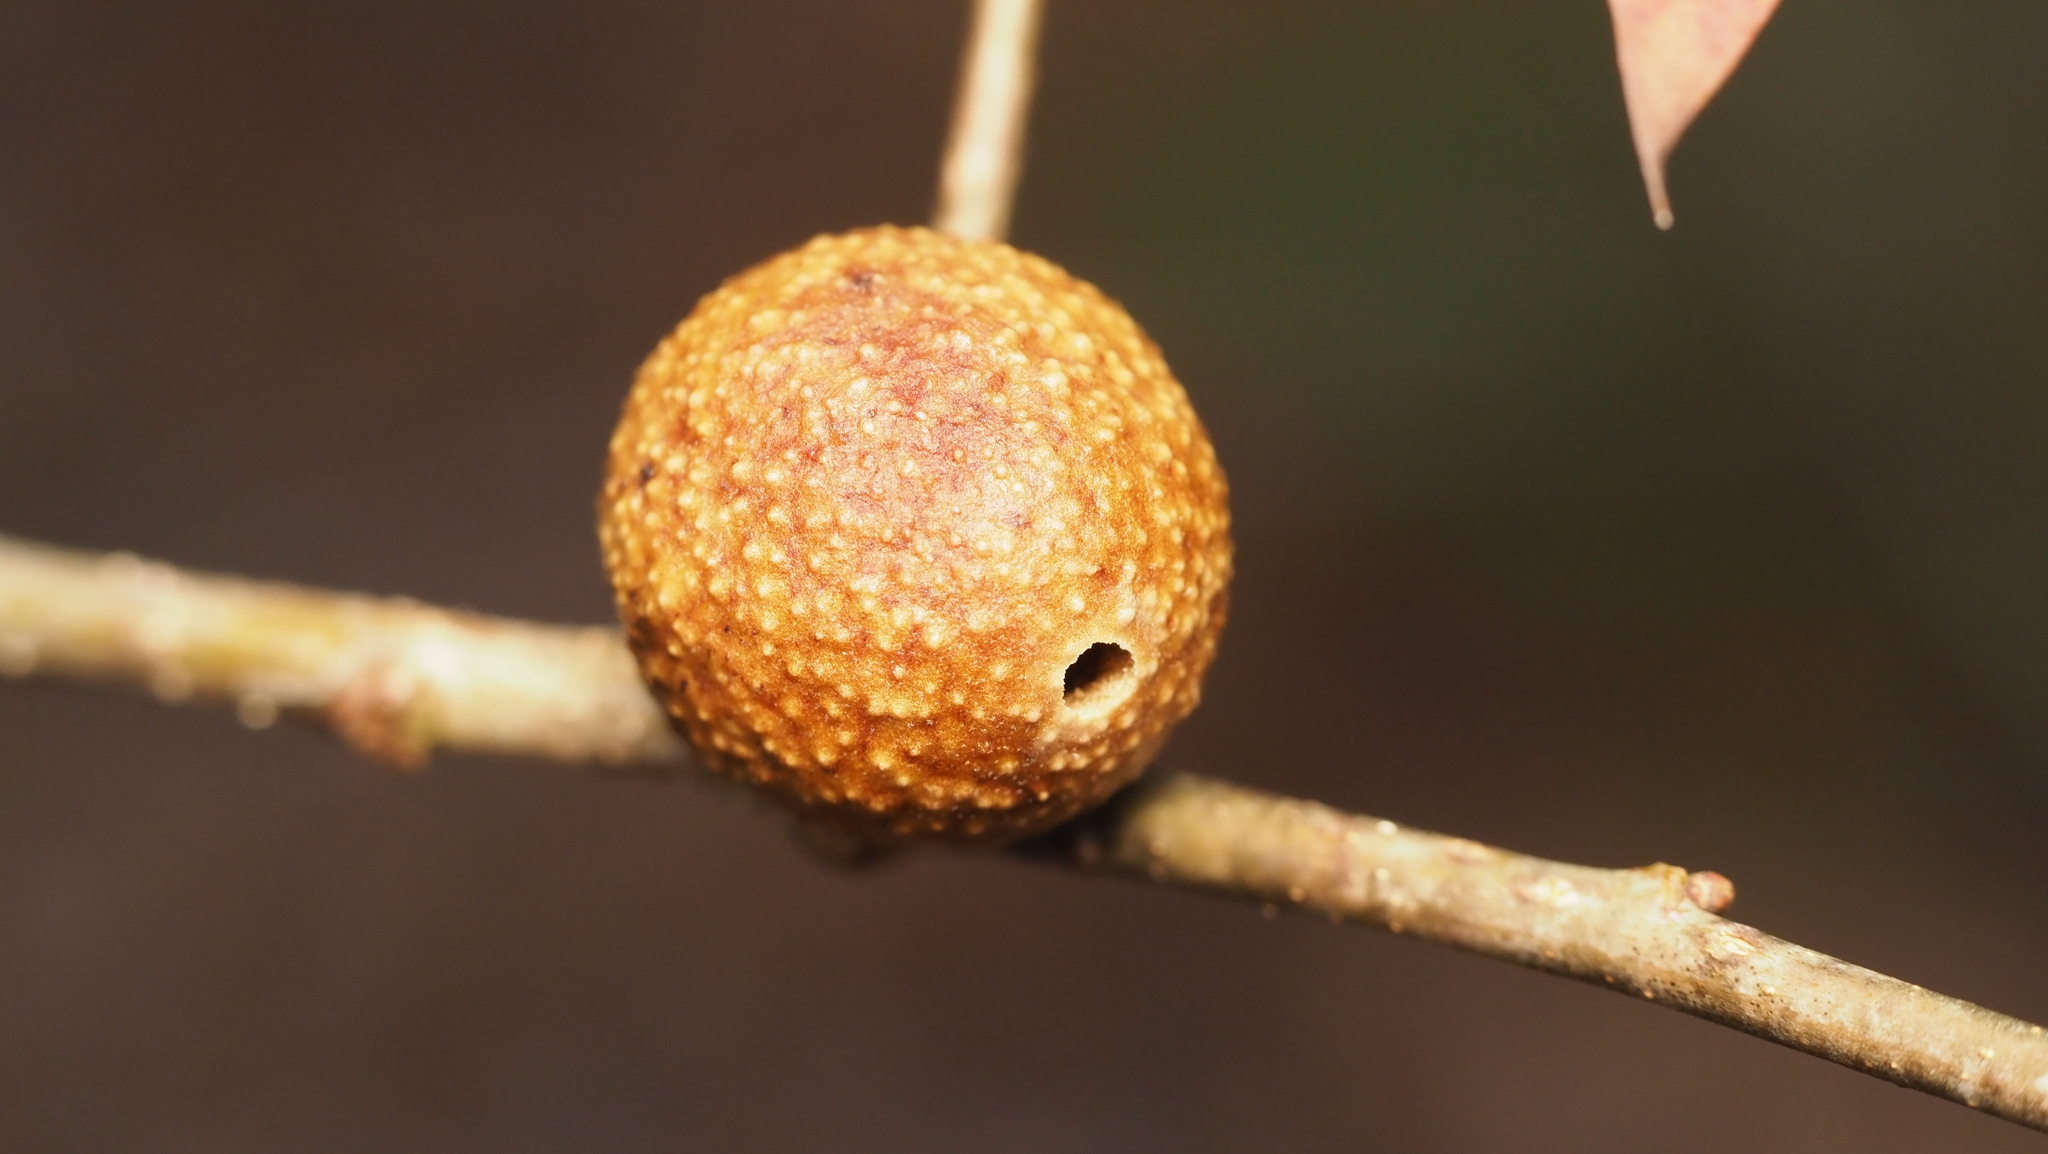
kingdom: Animalia
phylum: Arthropoda
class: Insecta
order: Hymenoptera
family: Cynipidae
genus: Disholcaspis
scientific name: Disholcaspis quercusglobulus
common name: Round bullet gall wasp
